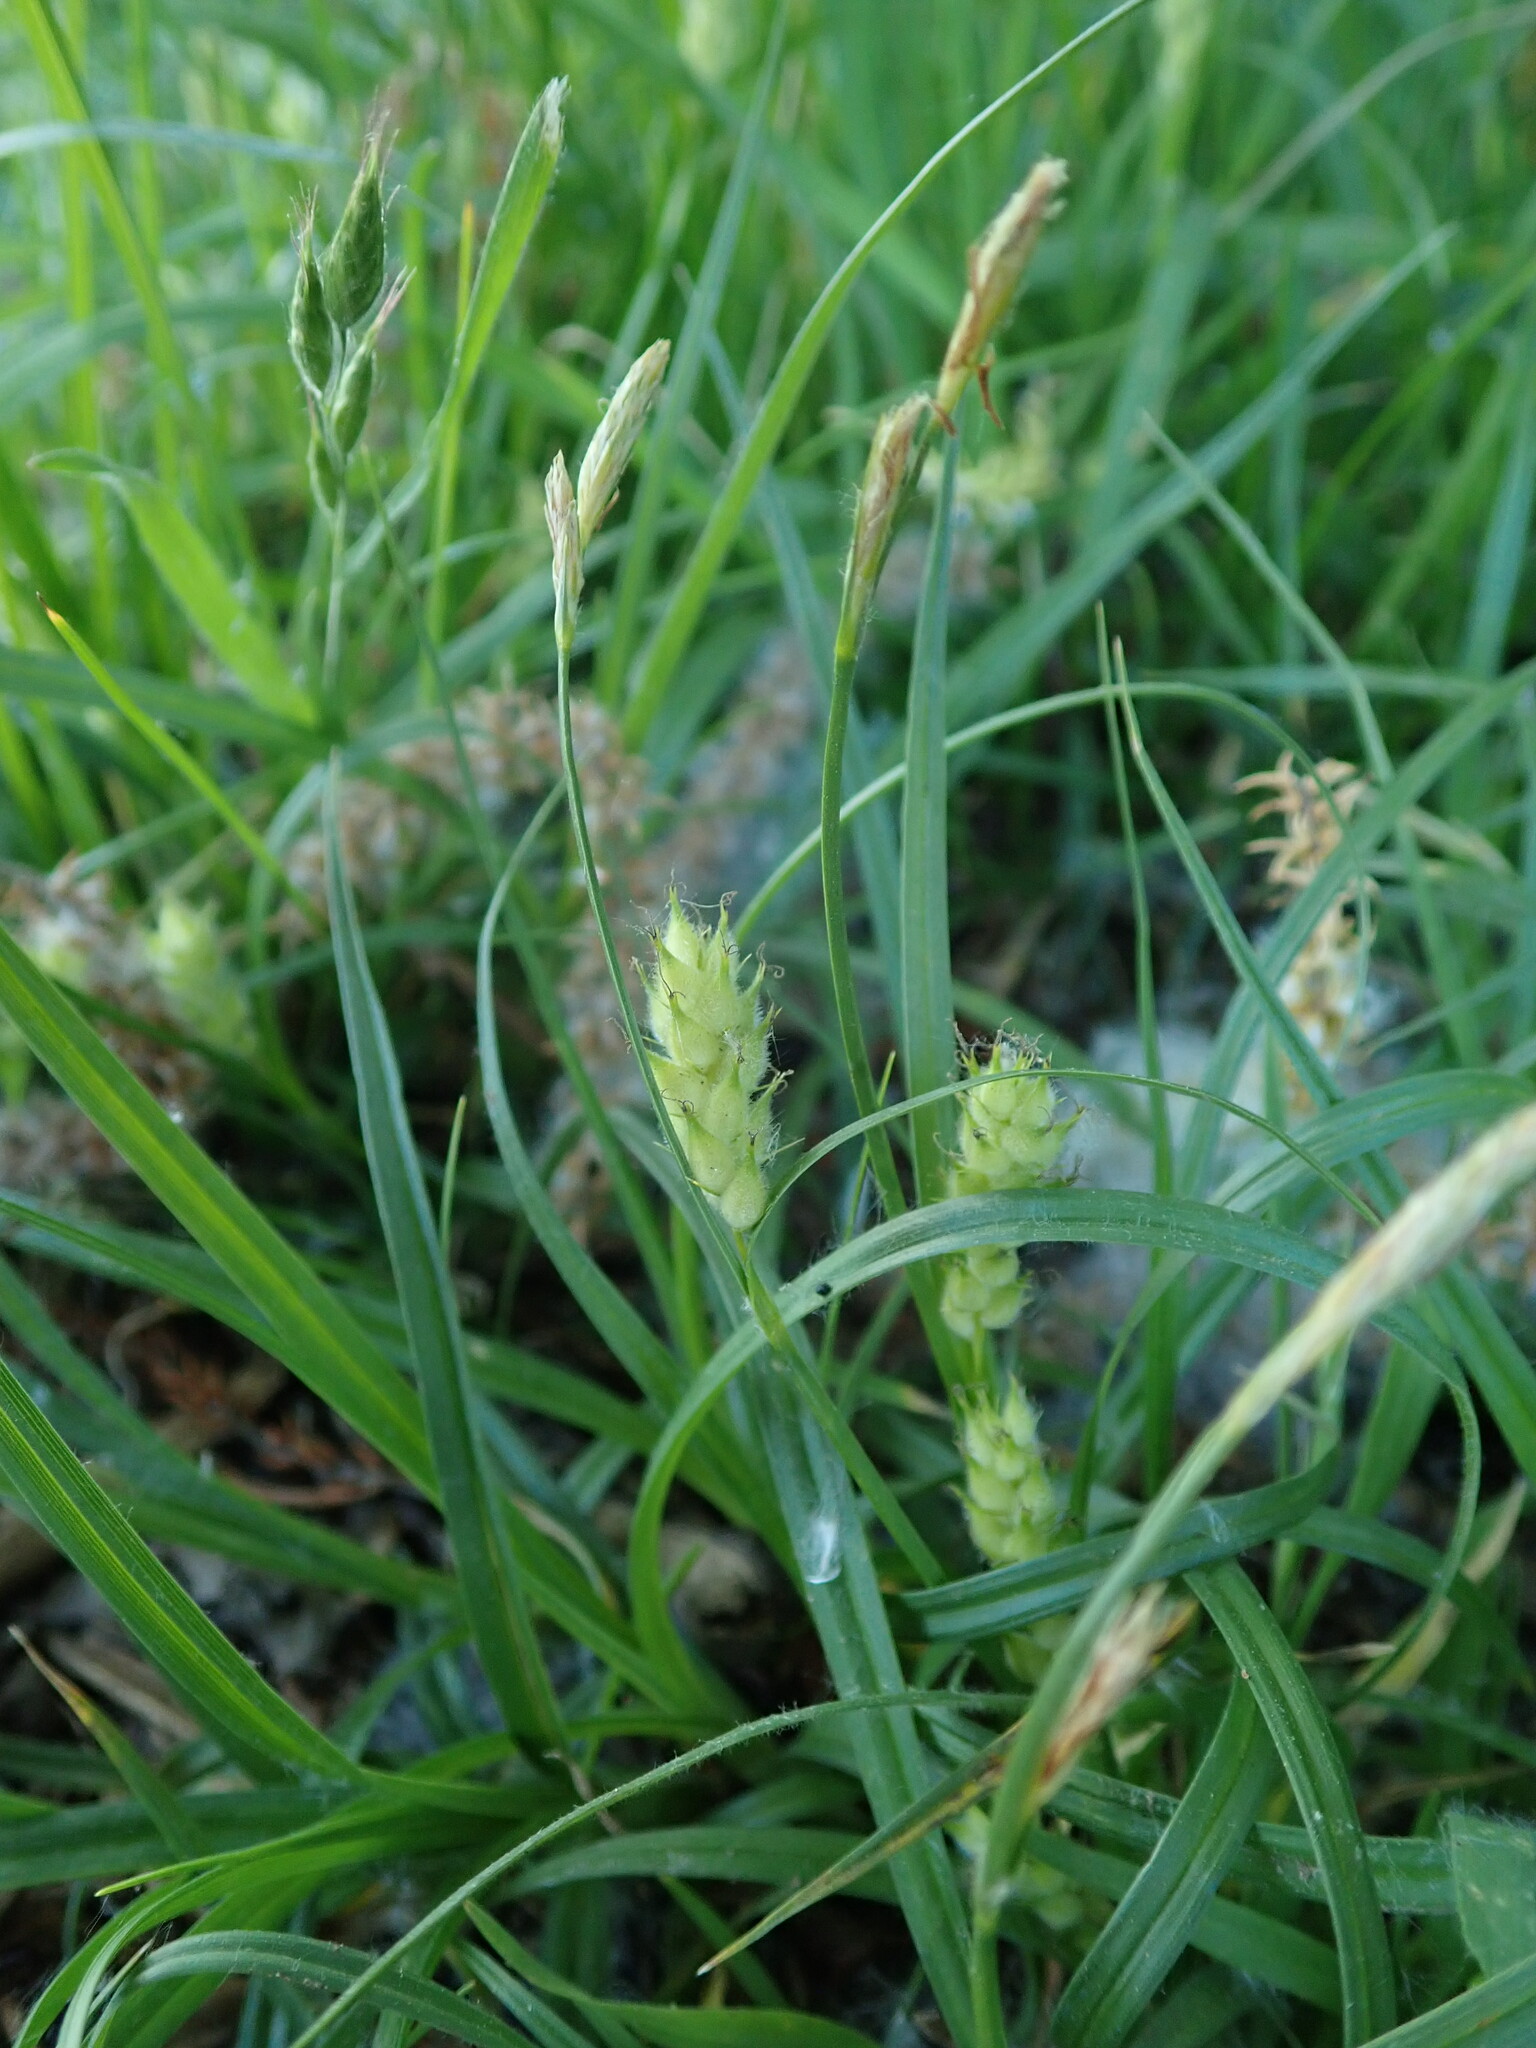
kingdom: Plantae
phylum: Tracheophyta
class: Liliopsida
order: Poales
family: Cyperaceae
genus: Carex
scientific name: Carex hirta
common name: Hairy sedge
